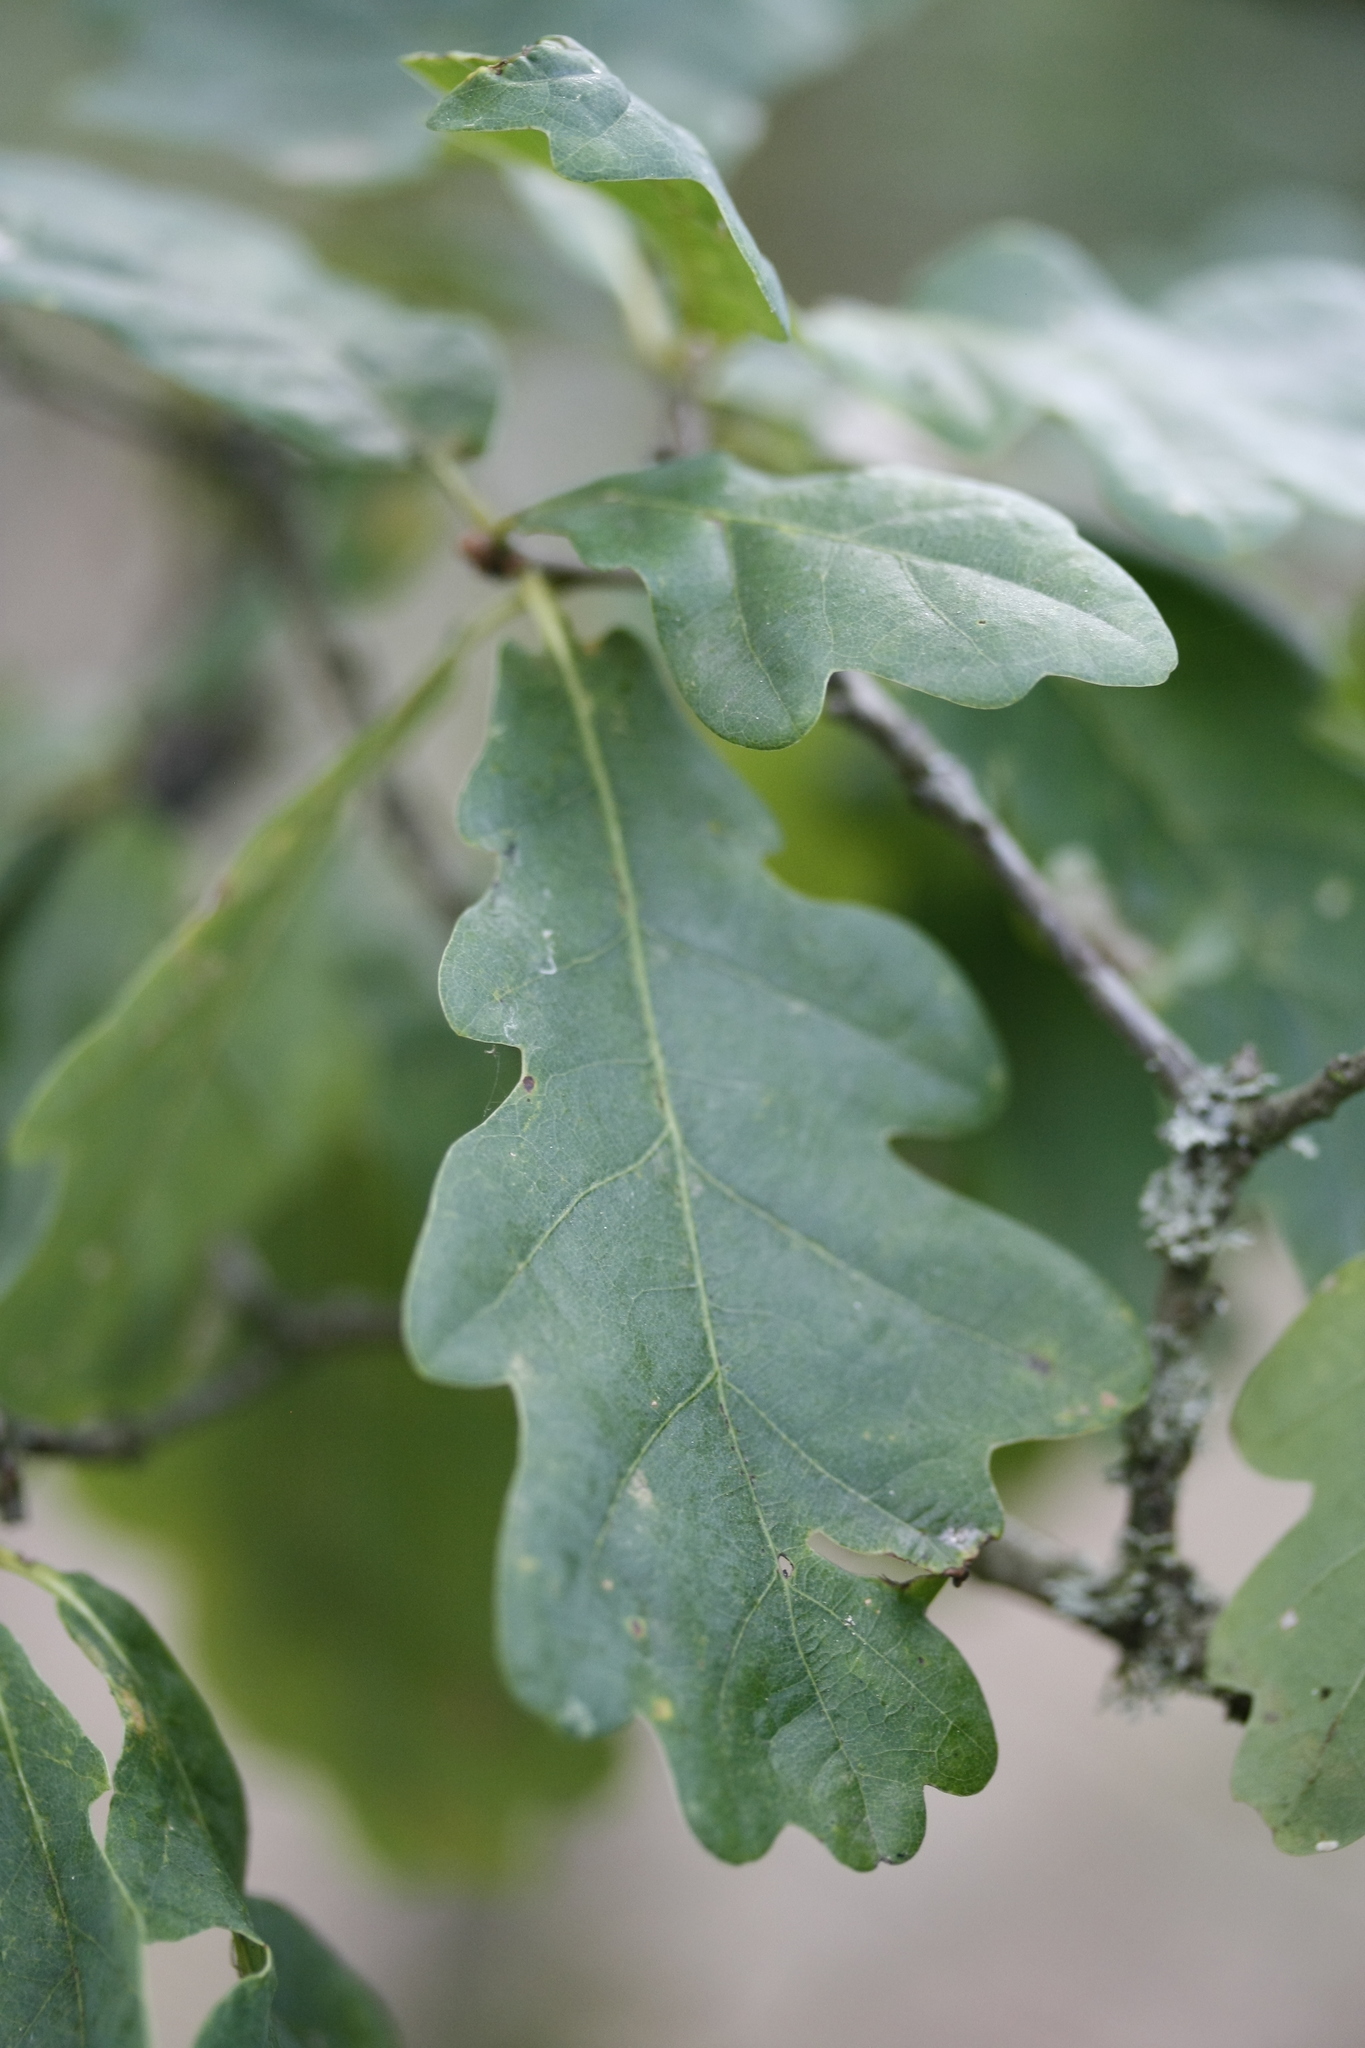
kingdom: Plantae
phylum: Tracheophyta
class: Magnoliopsida
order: Fagales
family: Fagaceae
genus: Quercus
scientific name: Quercus robur
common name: Pedunculate oak
